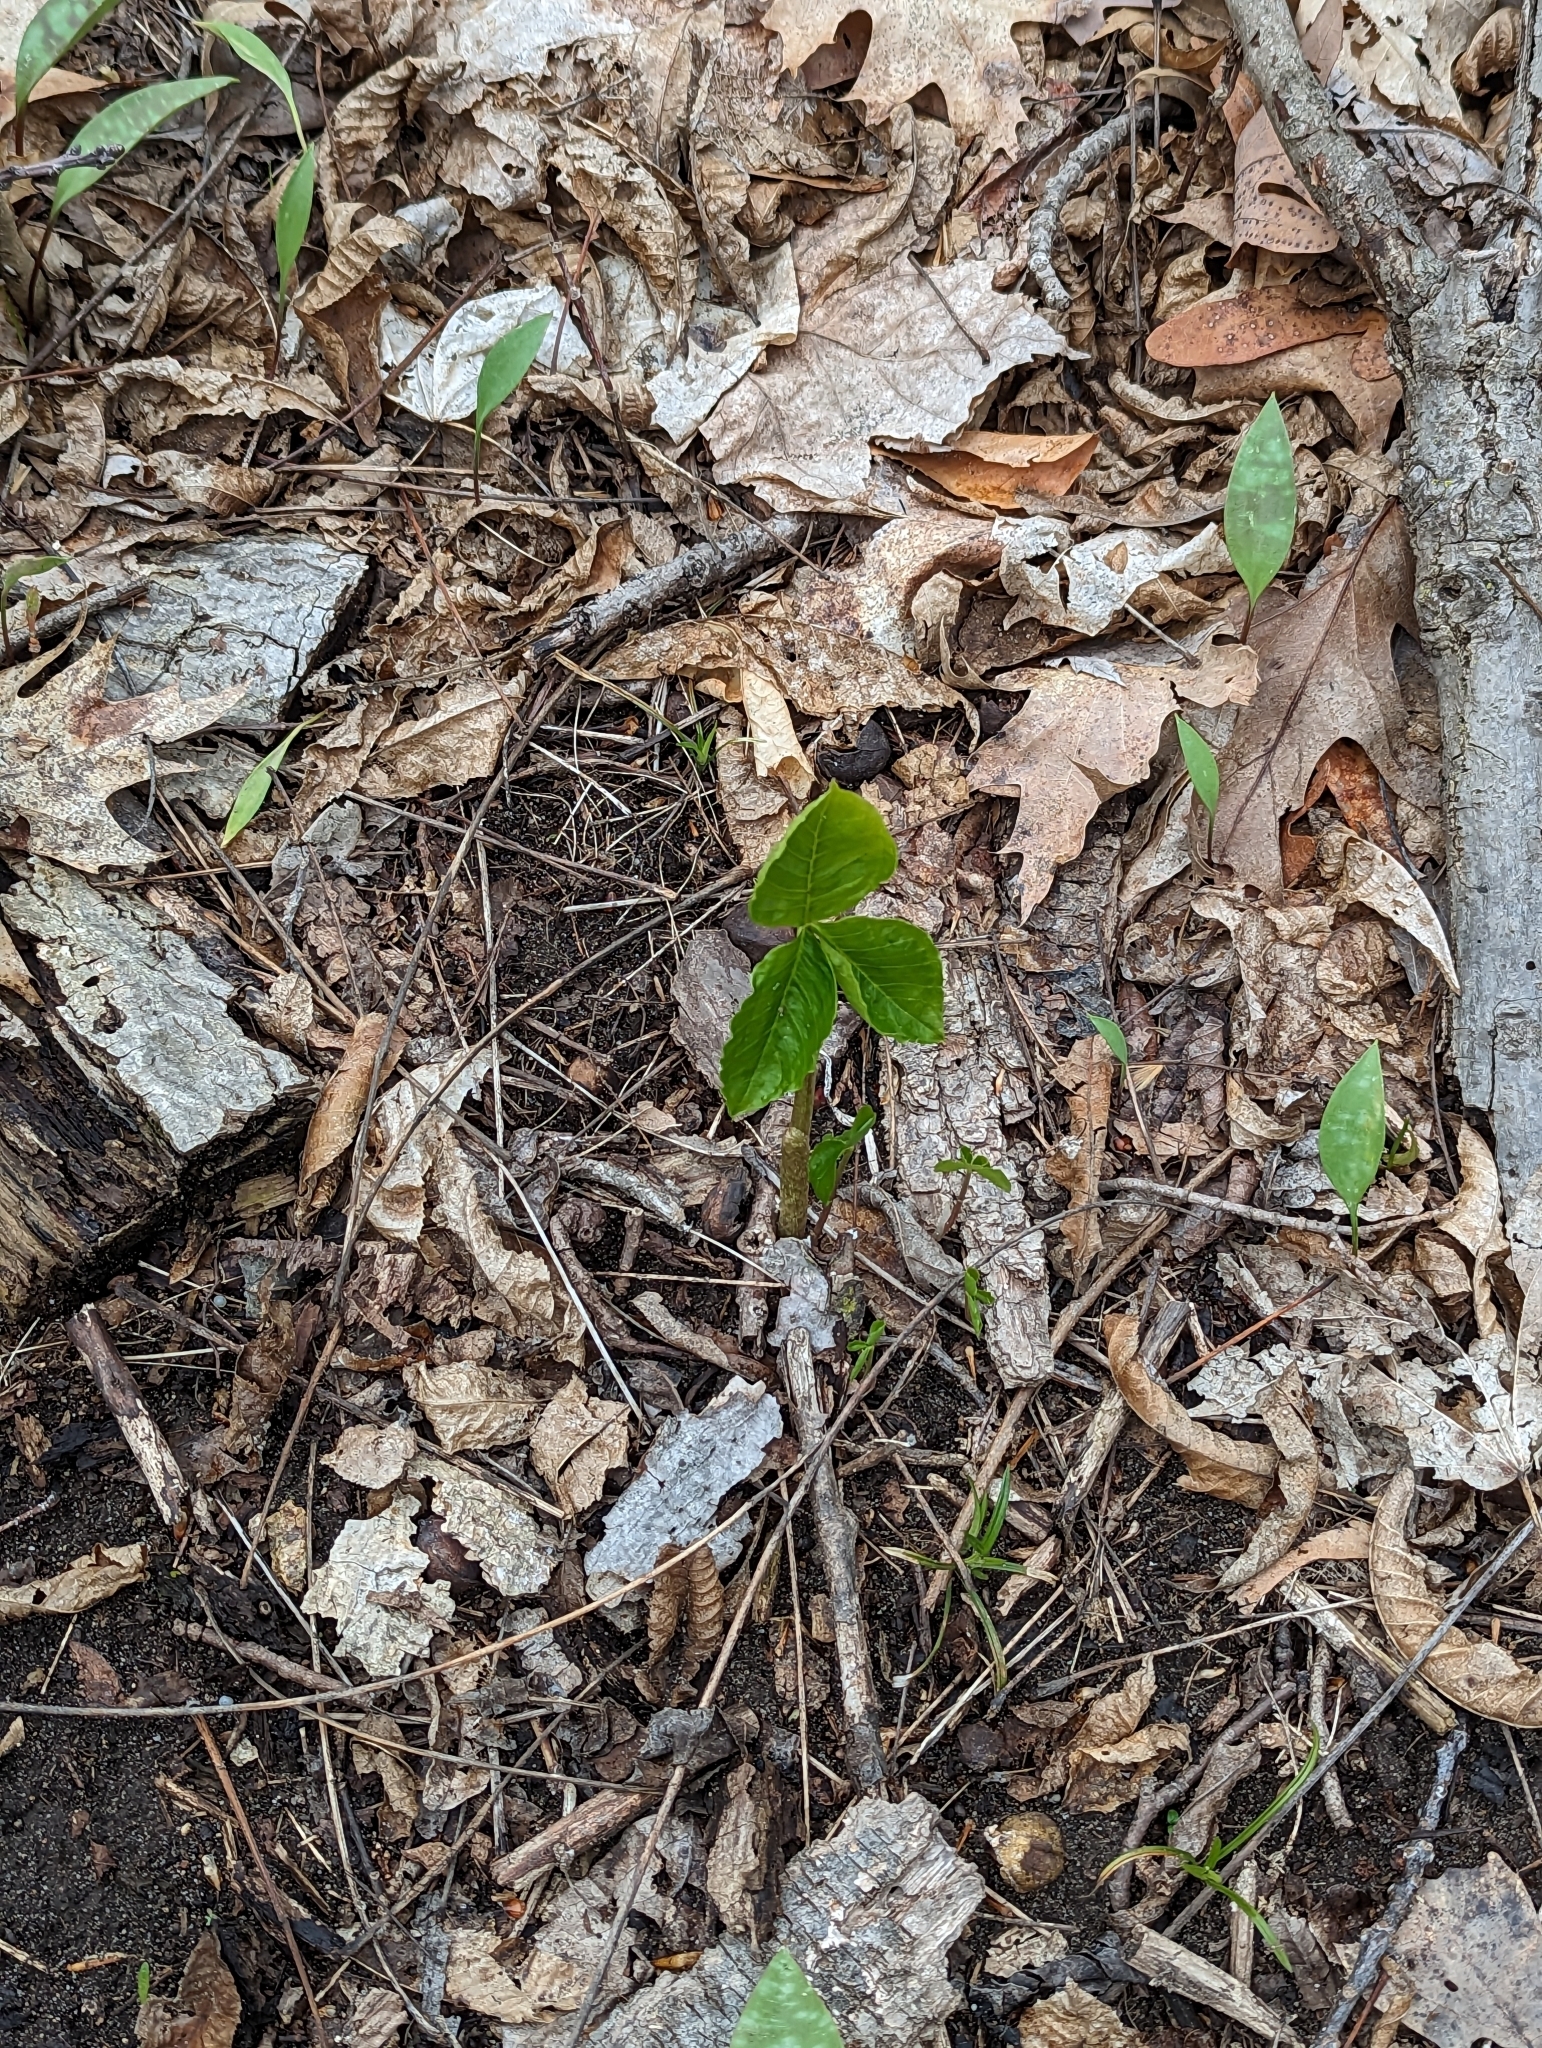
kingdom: Plantae
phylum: Tracheophyta
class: Liliopsida
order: Alismatales
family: Araceae
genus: Arisaema
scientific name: Arisaema triphyllum
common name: Jack-in-the-pulpit
